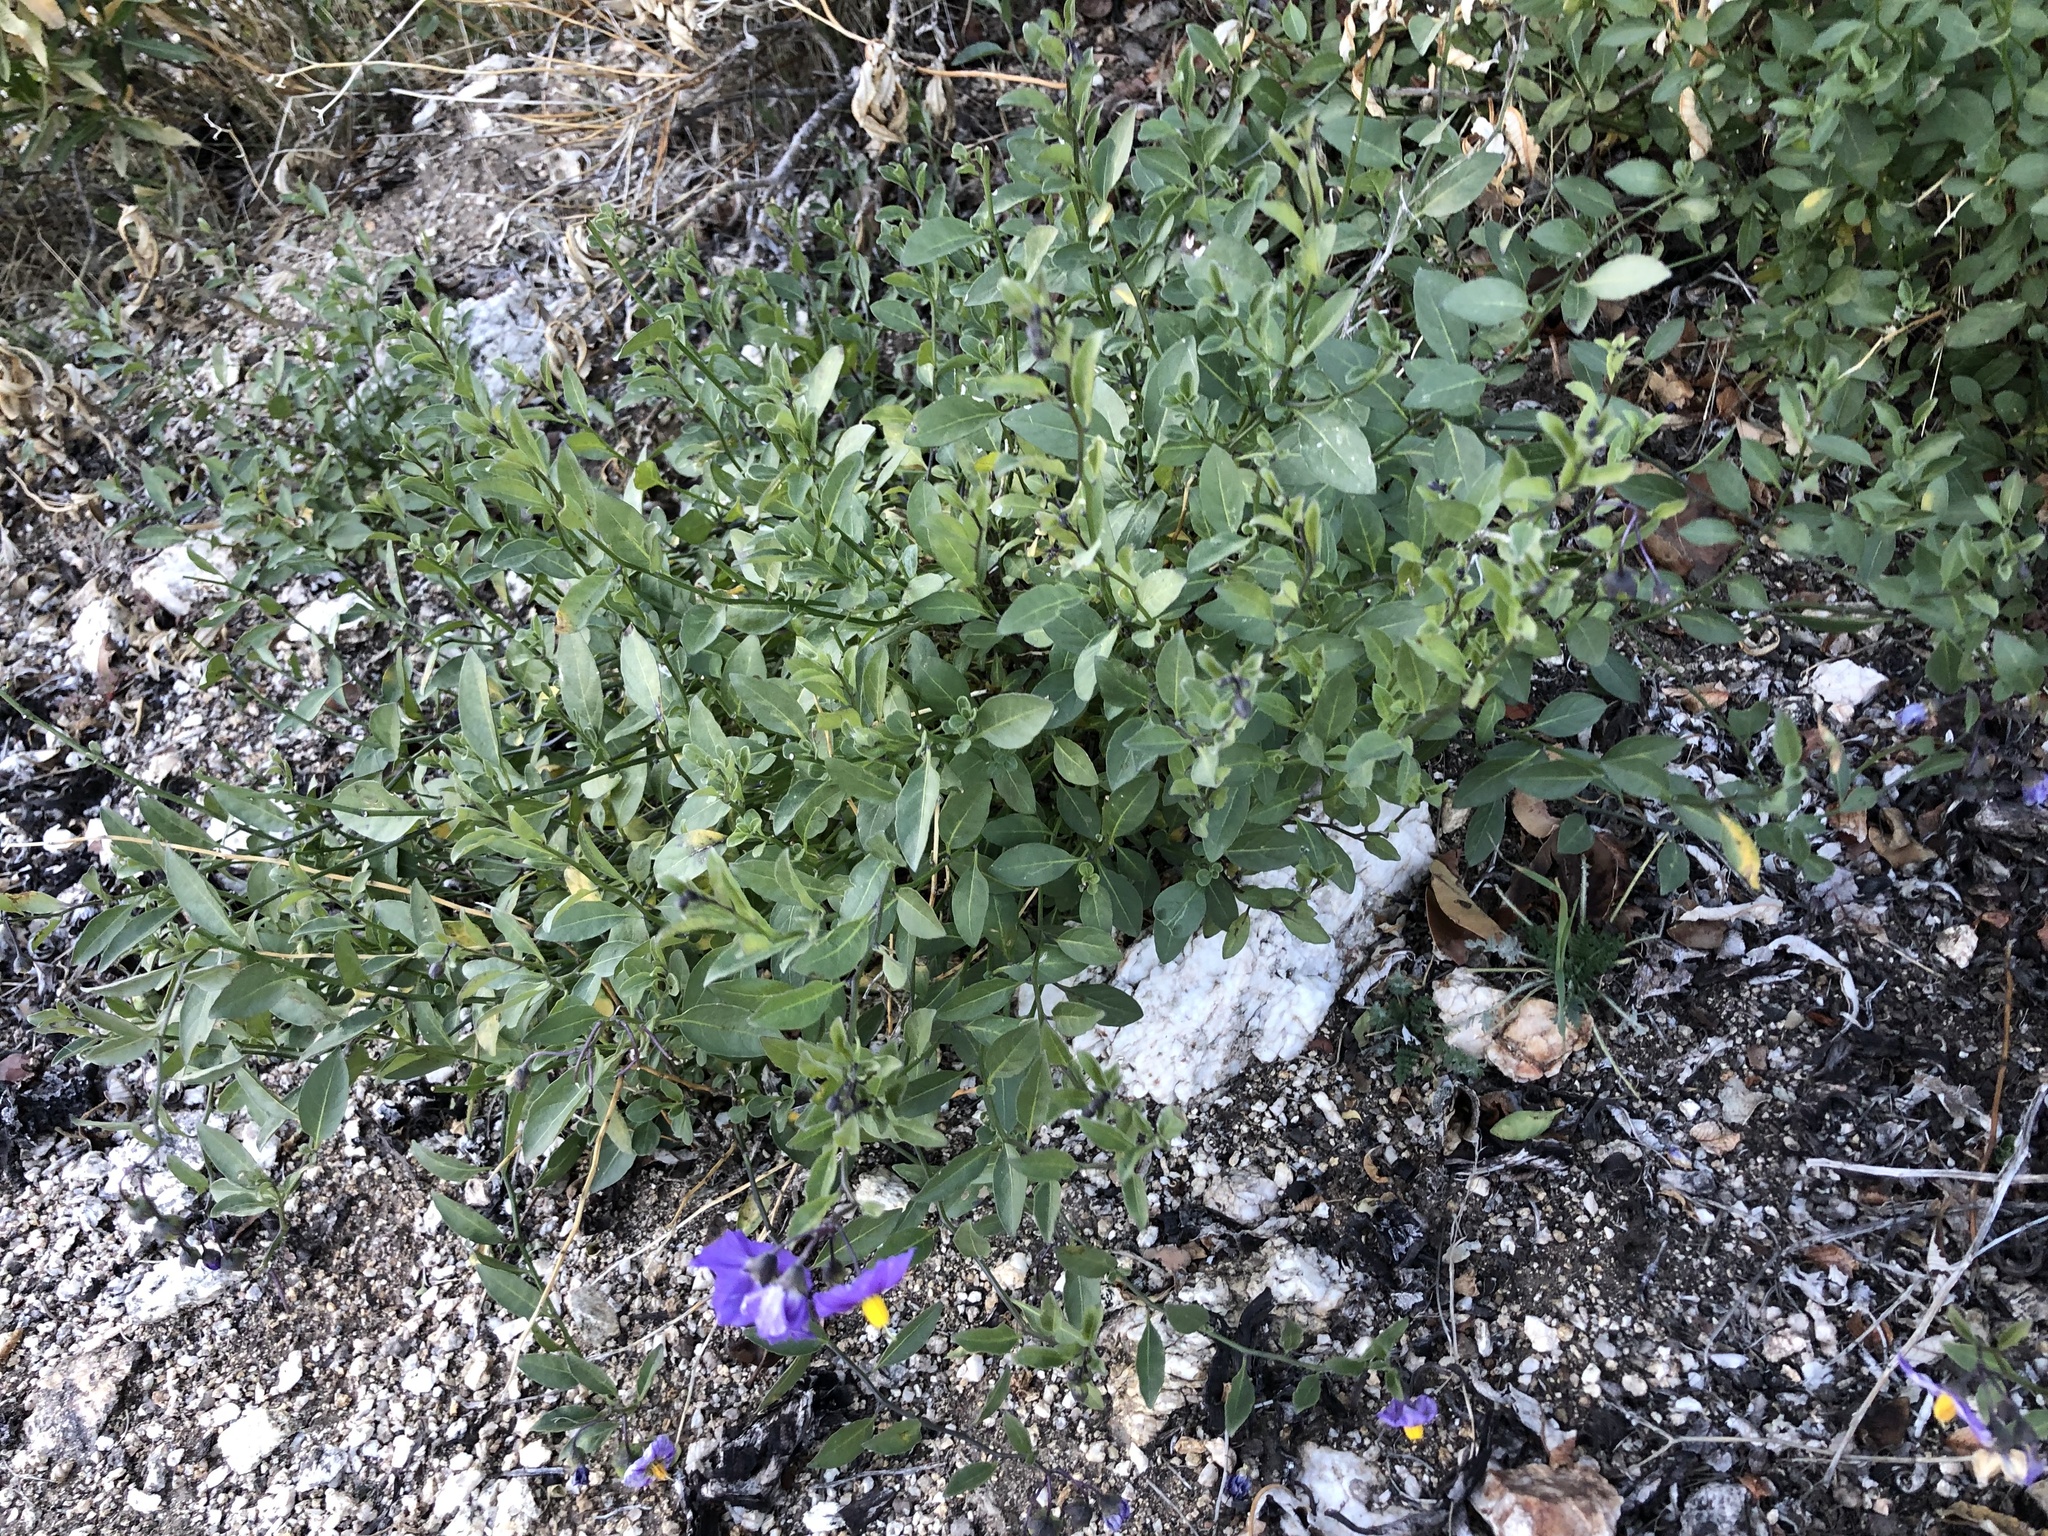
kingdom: Plantae
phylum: Tracheophyta
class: Magnoliopsida
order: Solanales
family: Solanaceae
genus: Solanum
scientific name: Solanum umbelliferum
